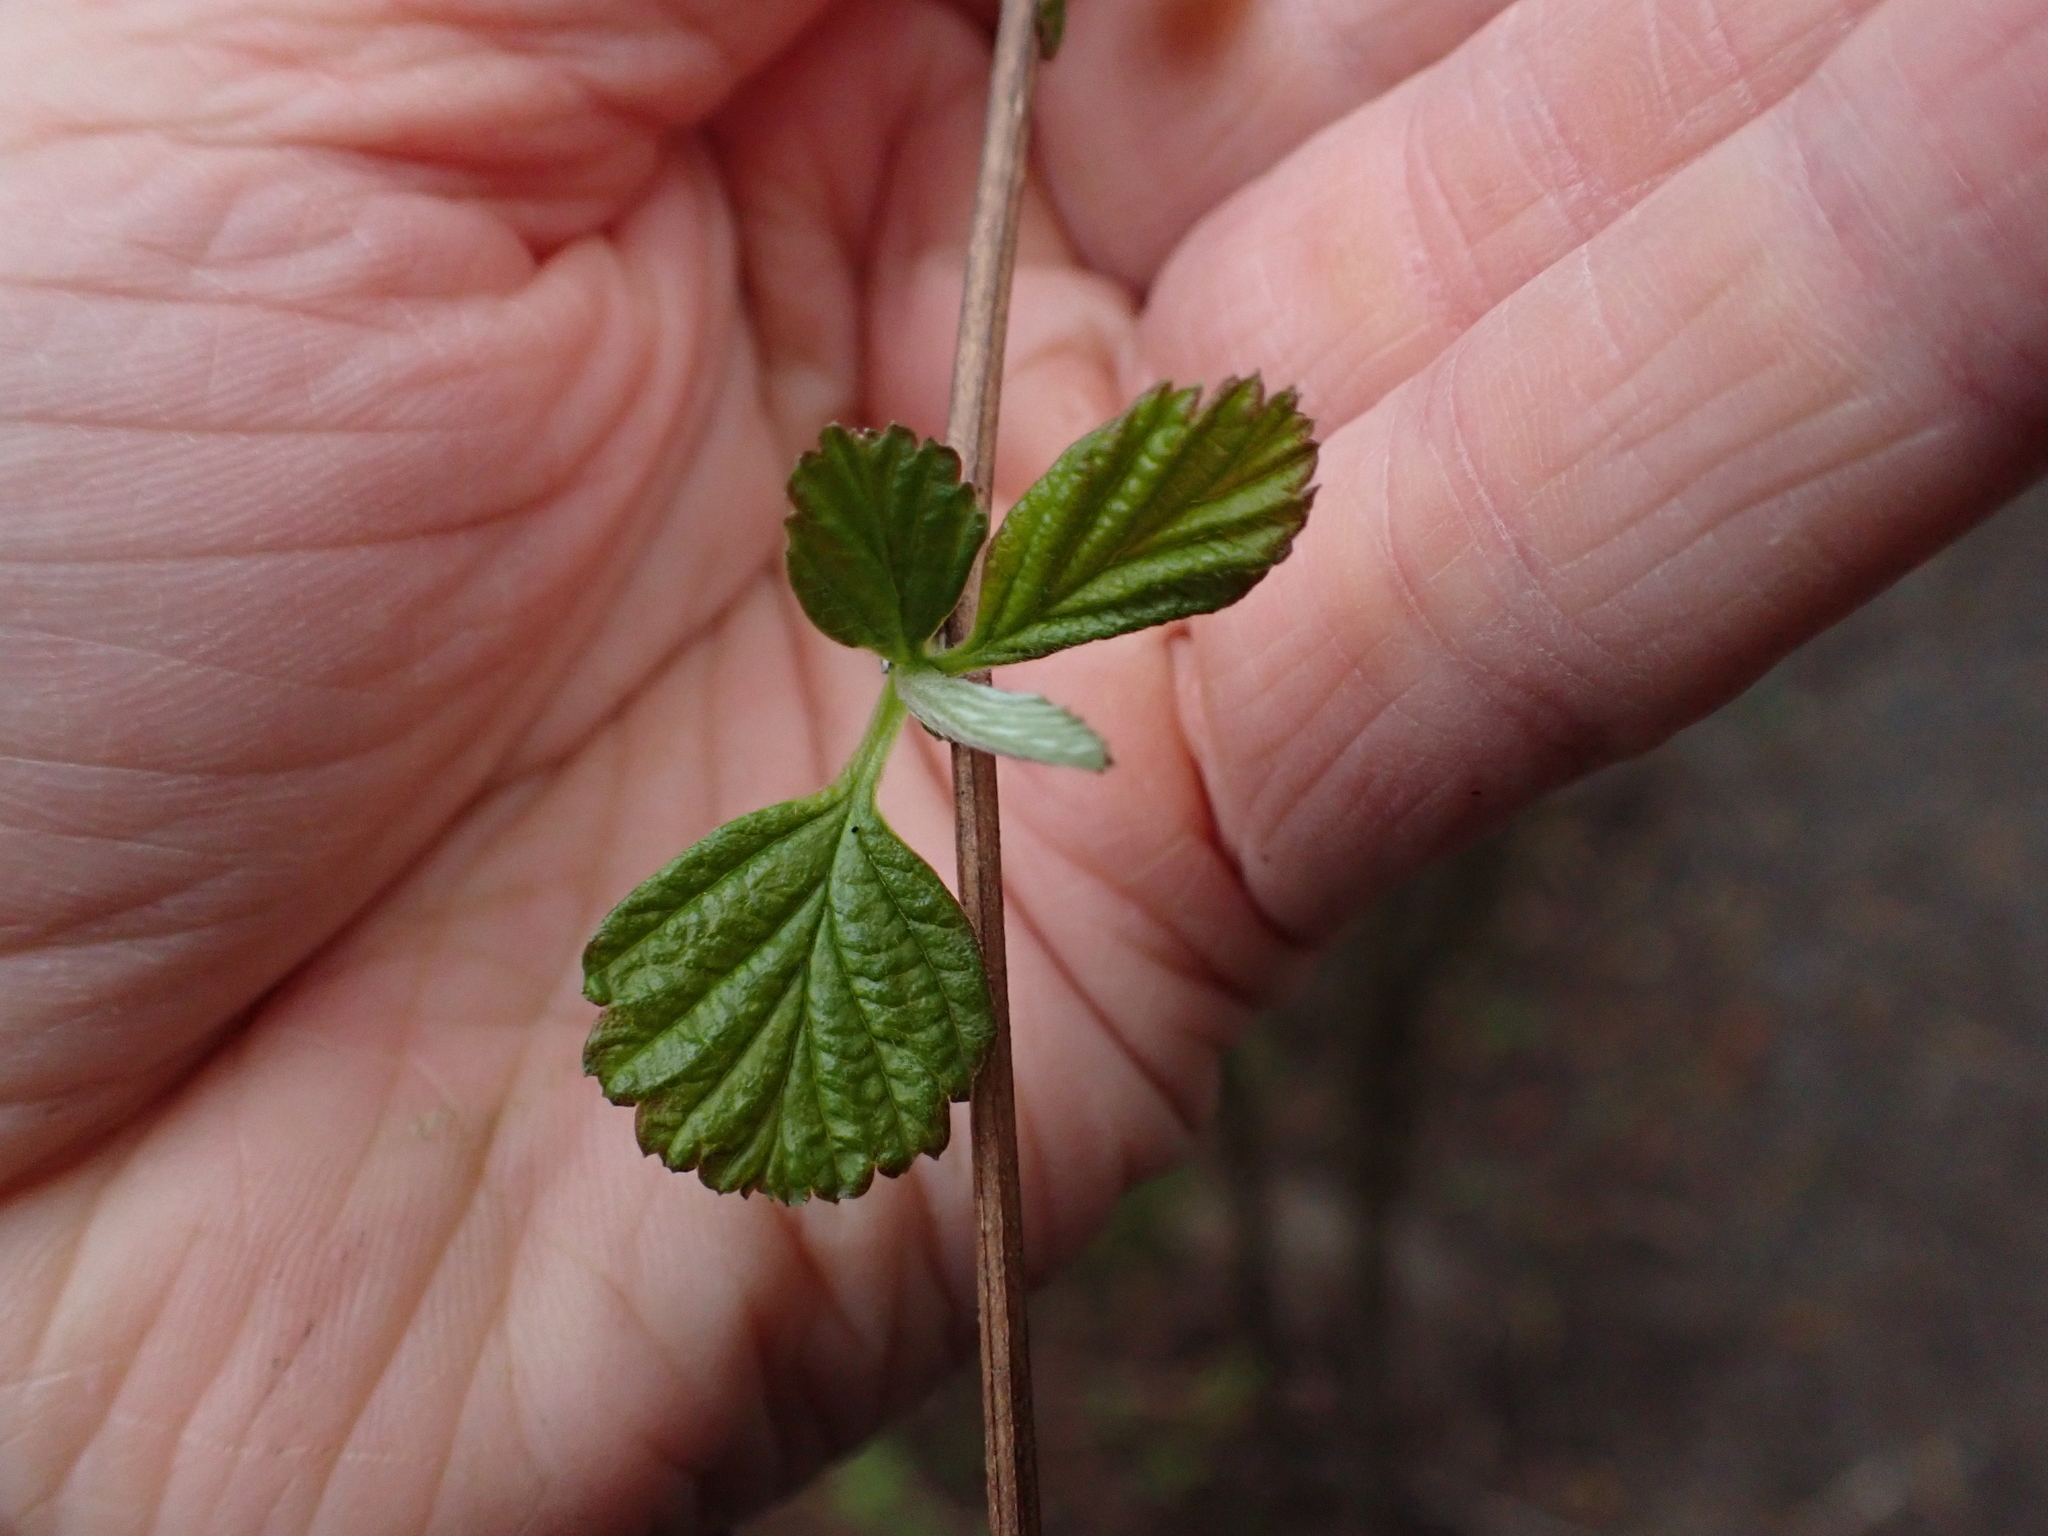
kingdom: Plantae
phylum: Tracheophyta
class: Magnoliopsida
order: Rosales
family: Rosaceae
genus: Holodiscus
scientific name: Holodiscus discolor
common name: Oceanspray
